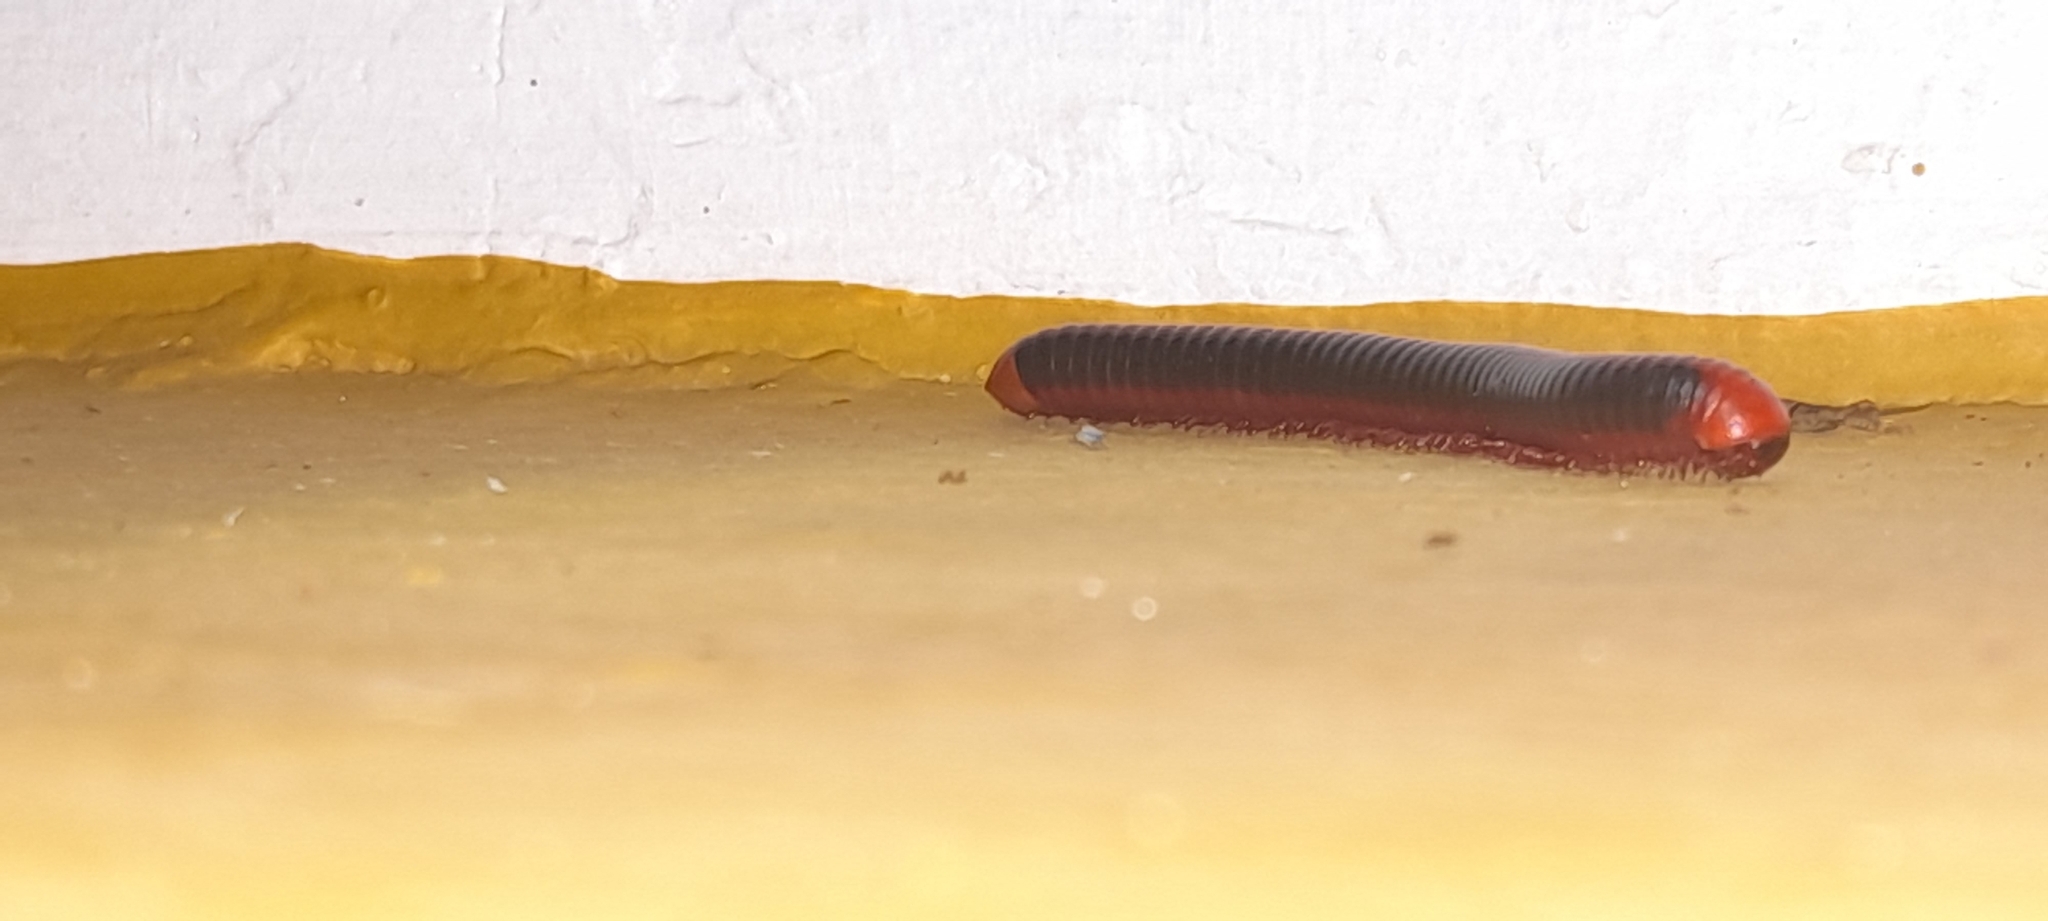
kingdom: Animalia
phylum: Arthropoda
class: Diplopoda
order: Spirobolida
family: Pachybolidae
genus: Xenobolus
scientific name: Xenobolus carnifex
